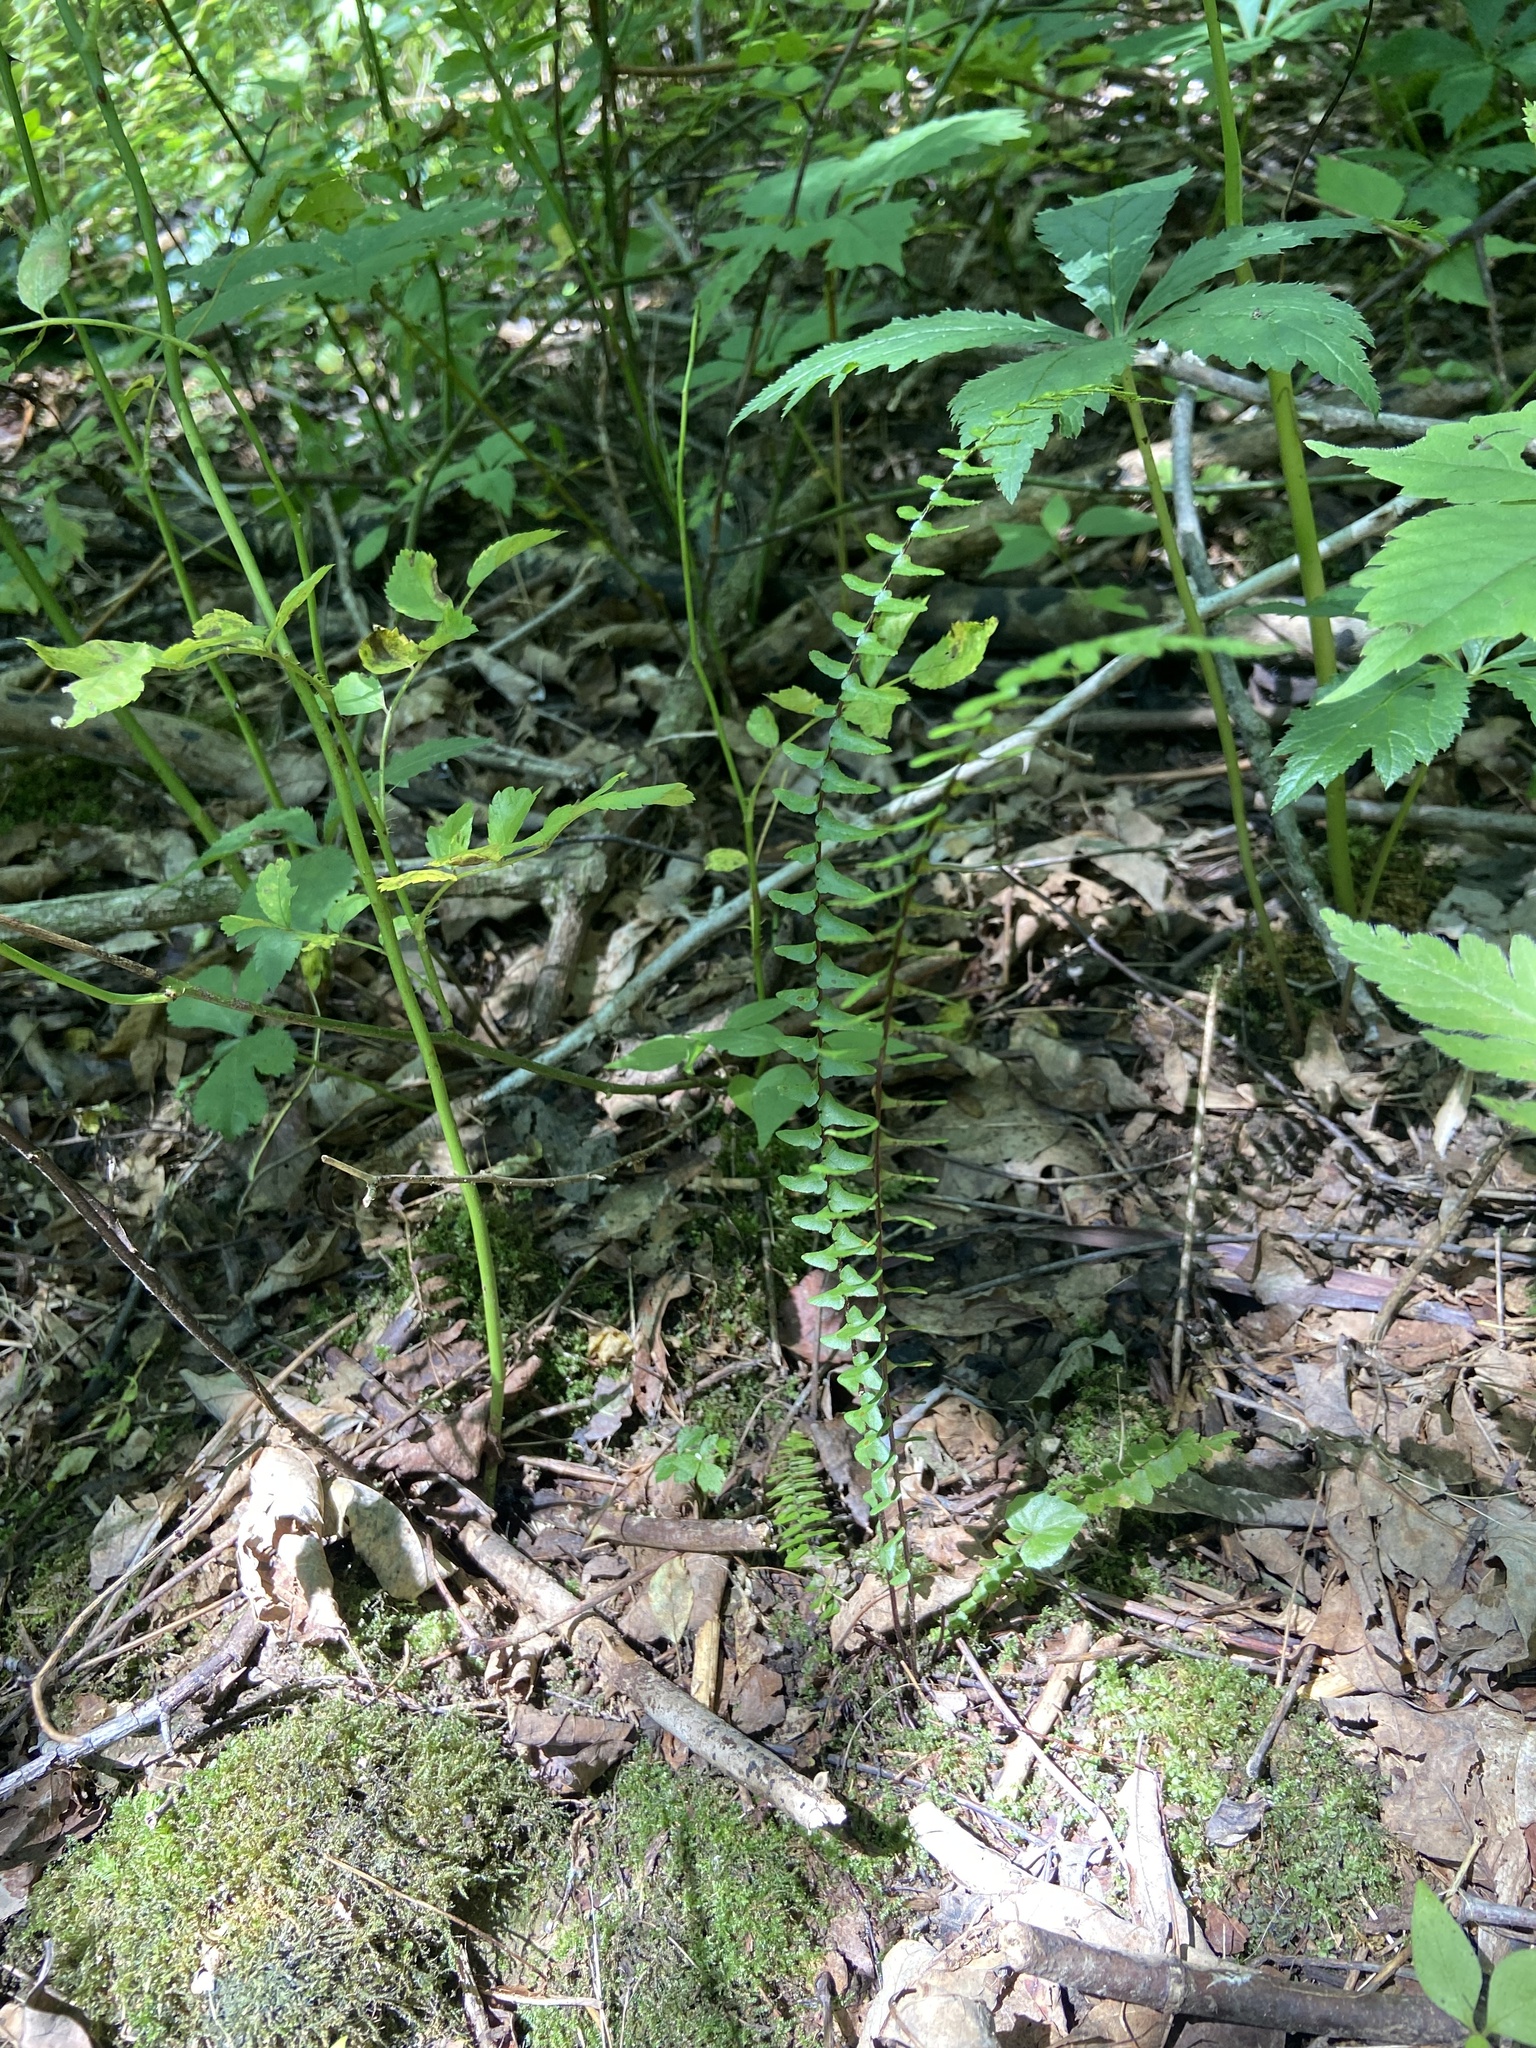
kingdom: Plantae
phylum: Tracheophyta
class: Polypodiopsida
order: Polypodiales
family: Aspleniaceae
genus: Asplenium
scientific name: Asplenium platyneuron
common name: Ebony spleenwort
